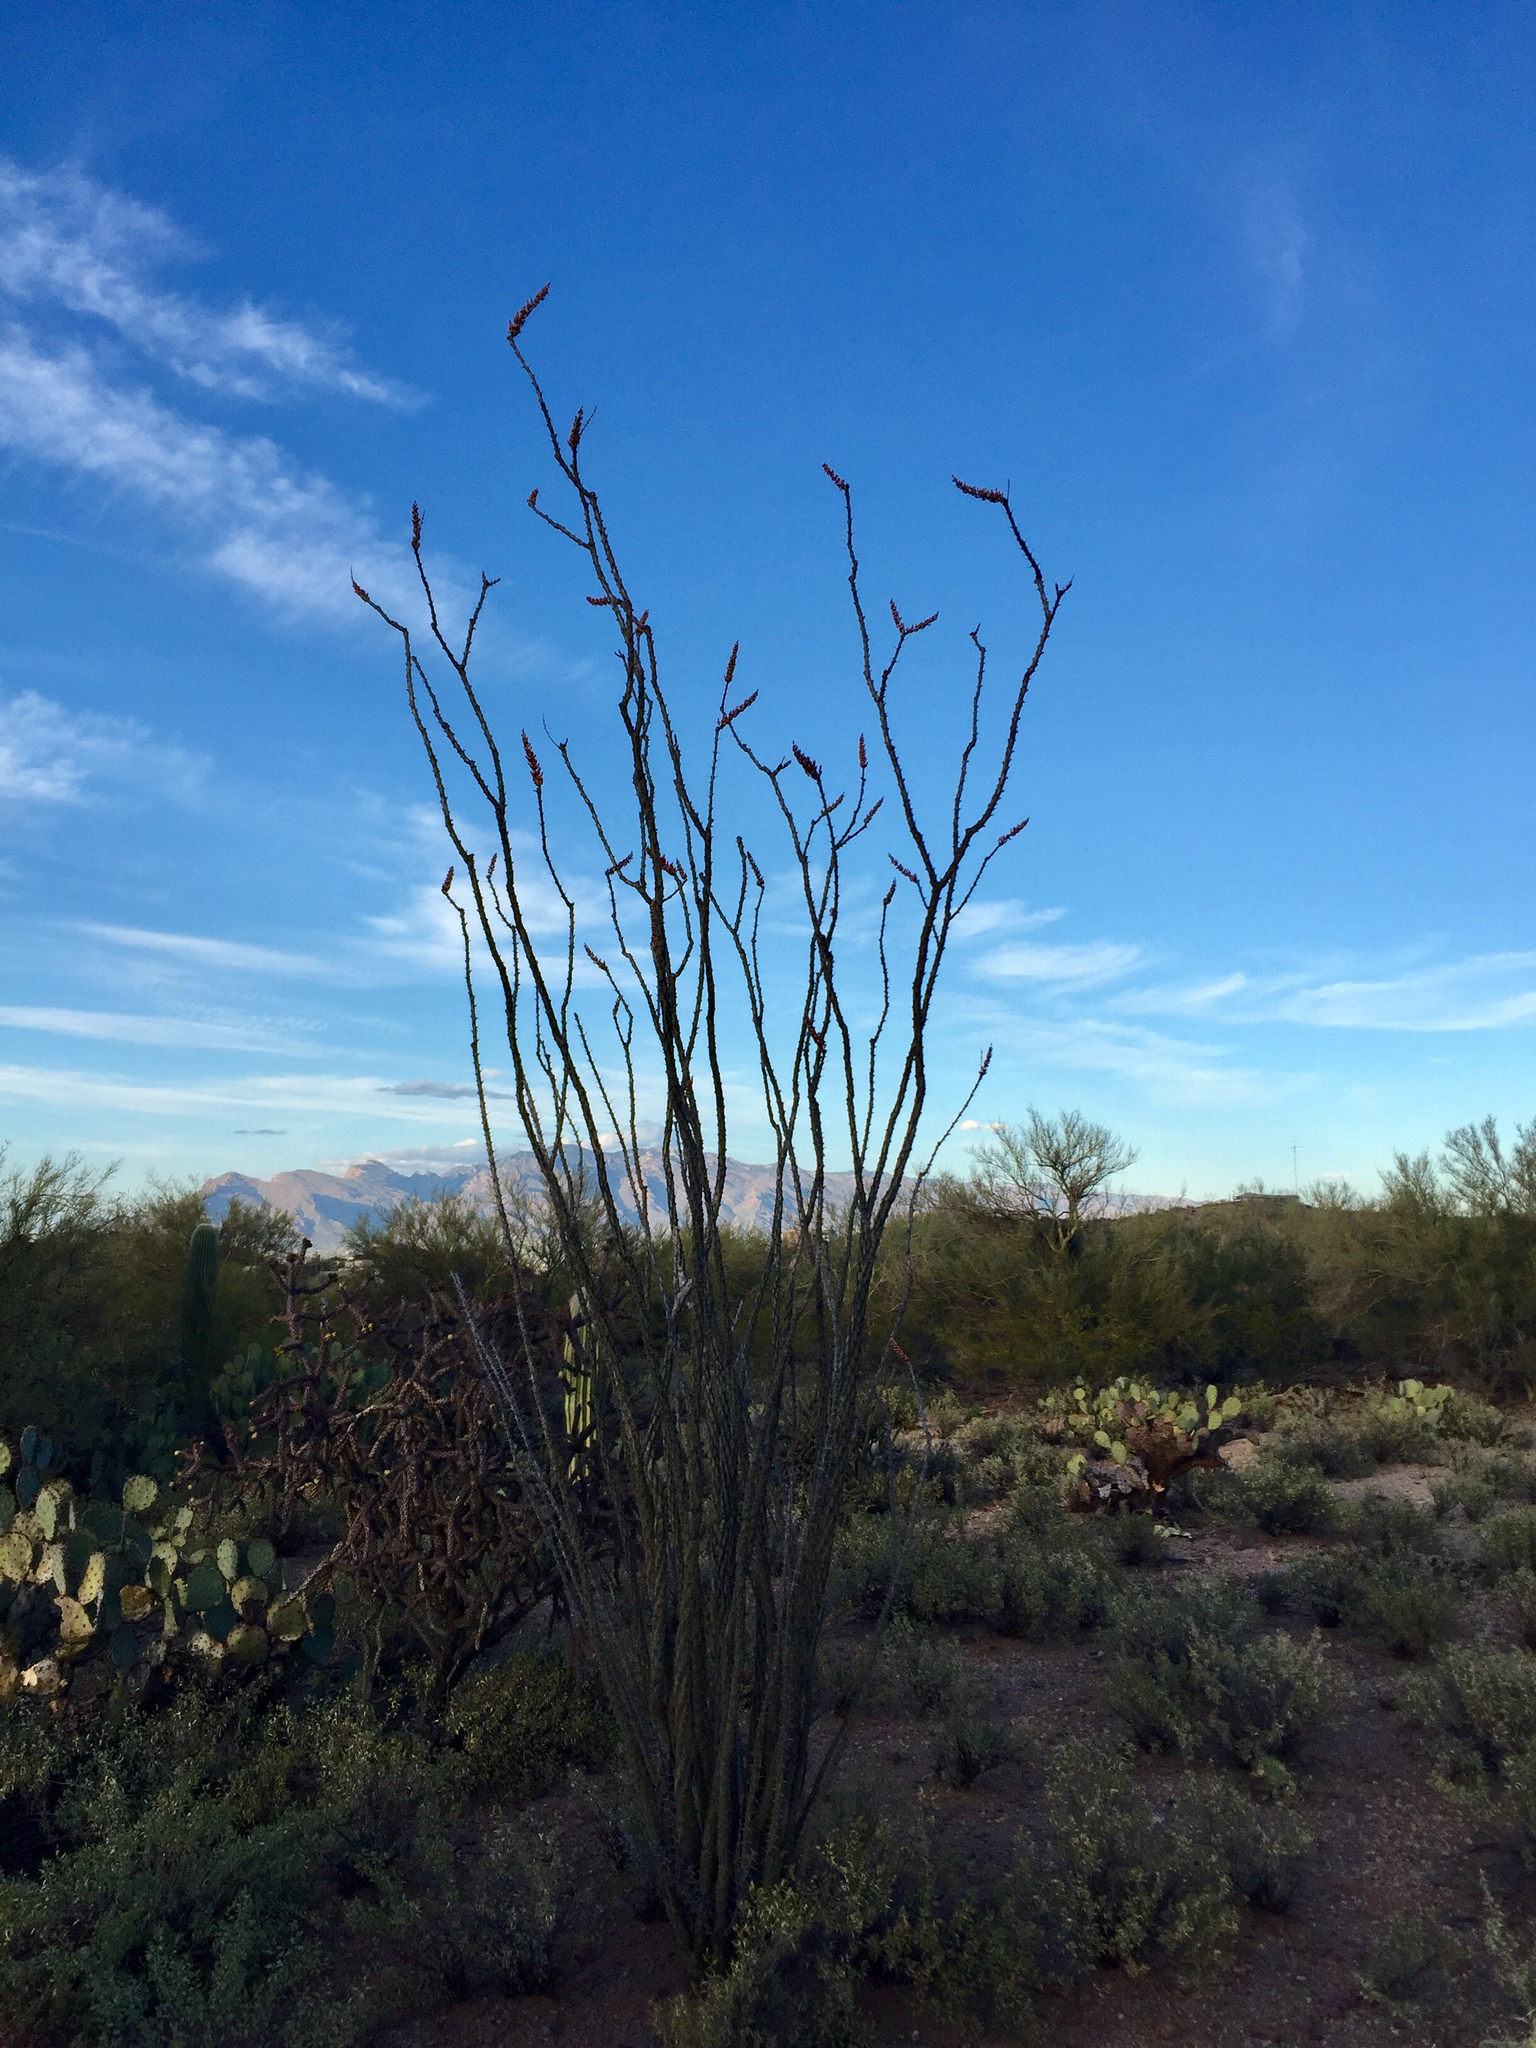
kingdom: Plantae
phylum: Tracheophyta
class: Magnoliopsida
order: Ericales
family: Fouquieriaceae
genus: Fouquieria
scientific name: Fouquieria splendens
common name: Vine-cactus
